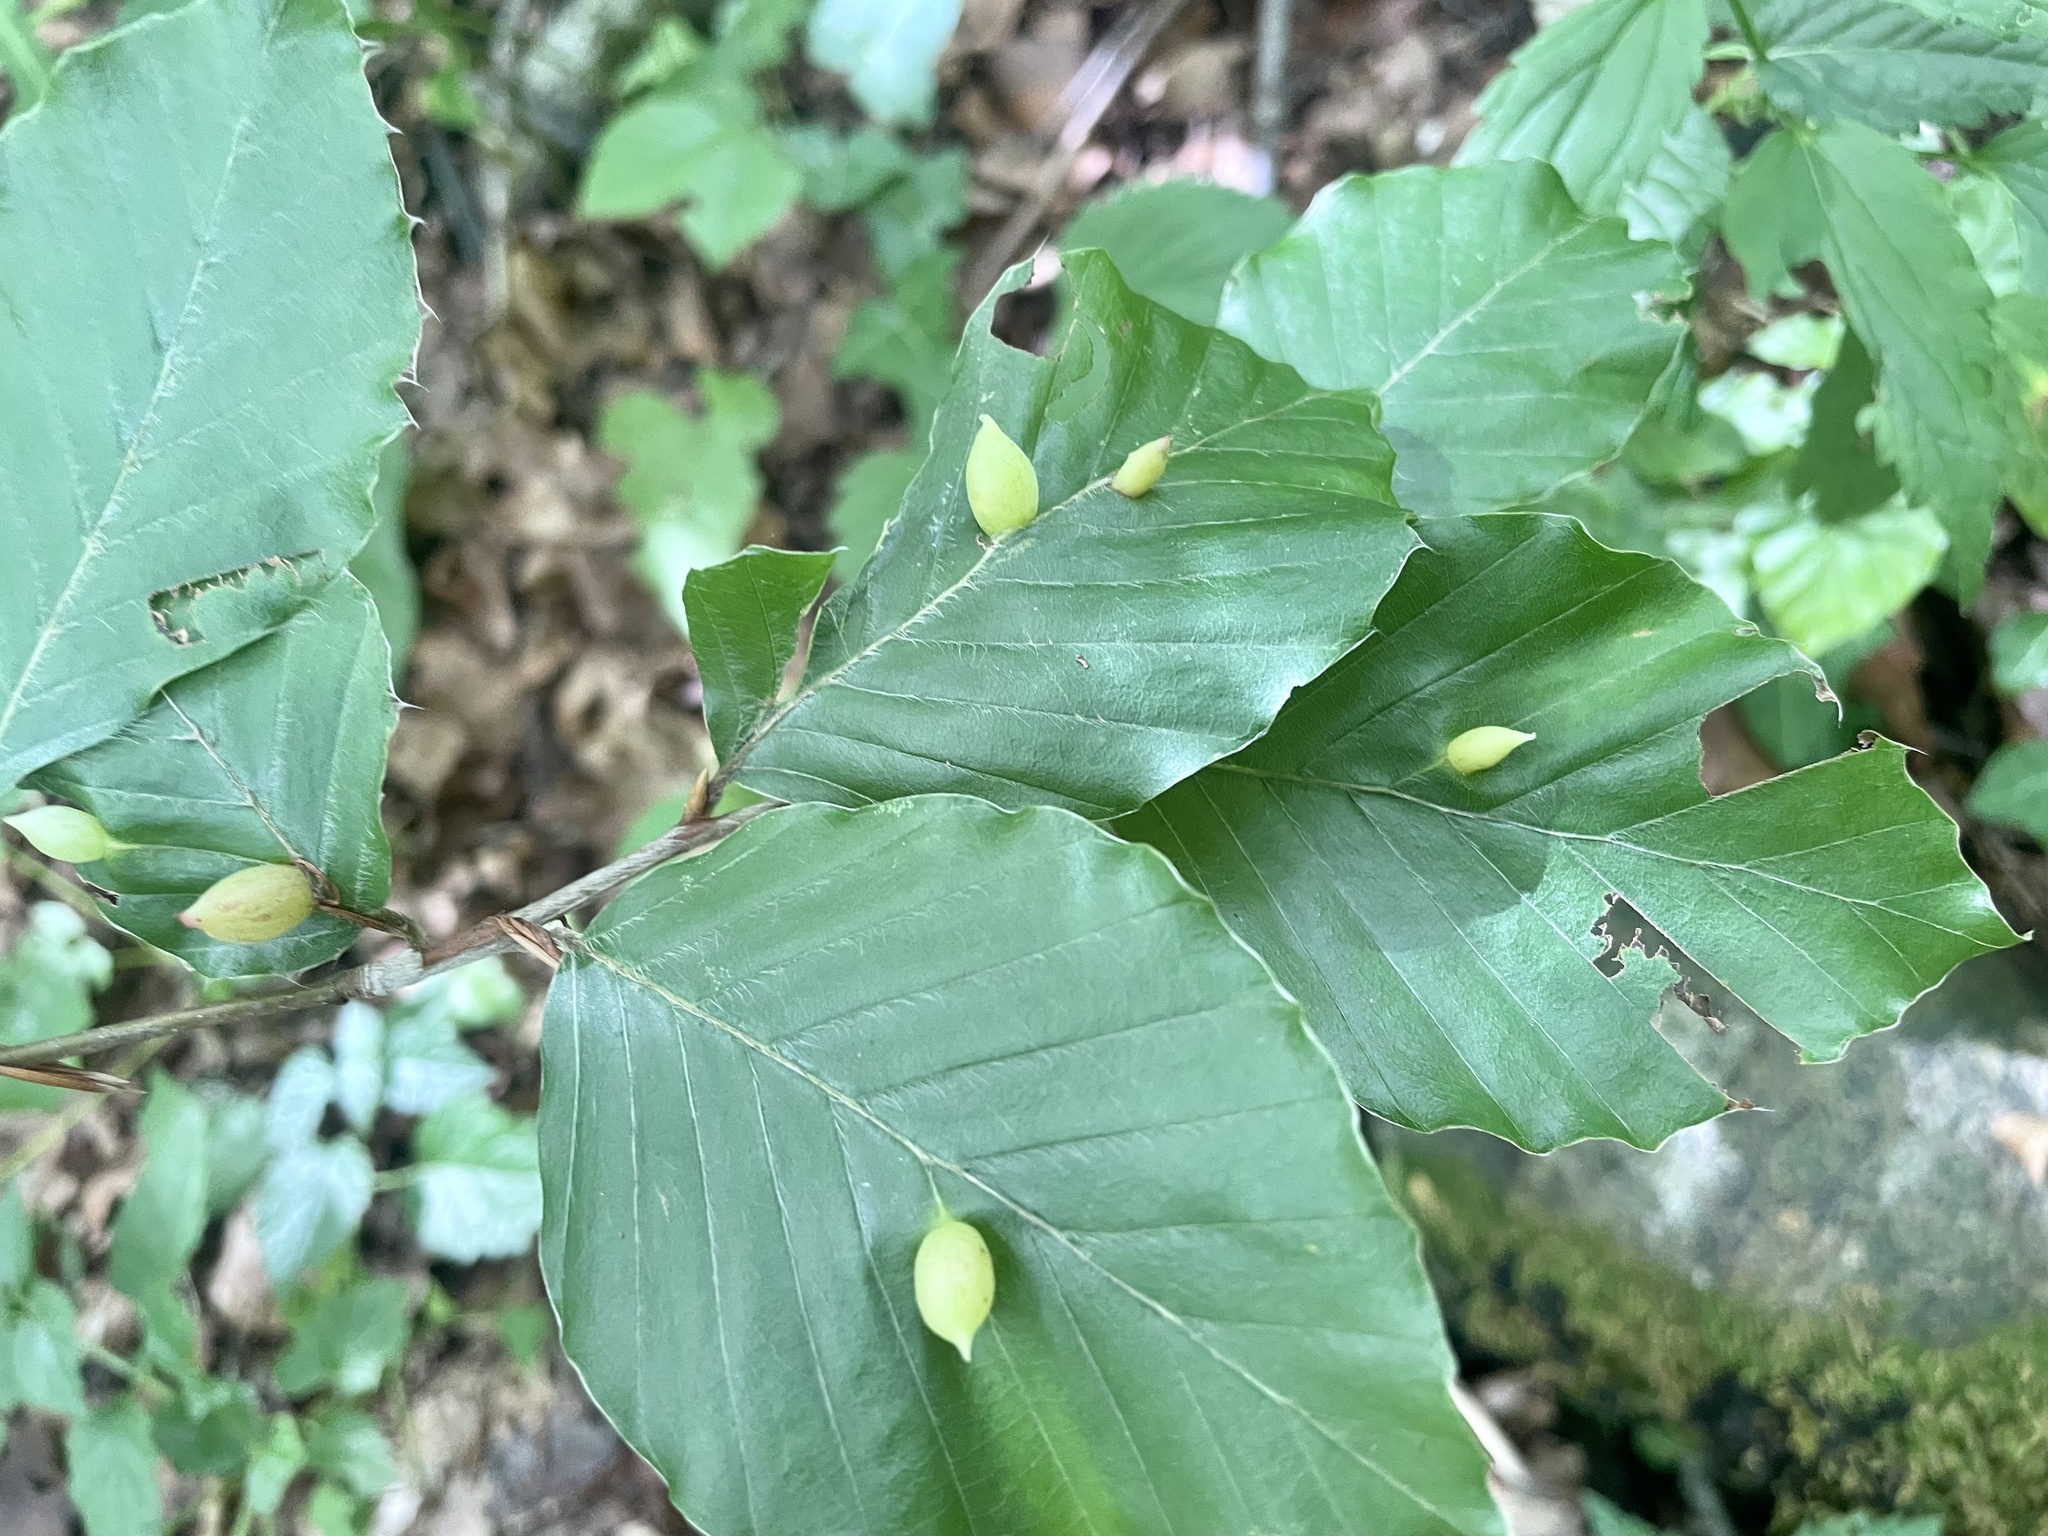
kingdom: Animalia
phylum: Arthropoda
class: Insecta
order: Diptera
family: Cecidomyiidae
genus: Mikiola
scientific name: Mikiola fagi
